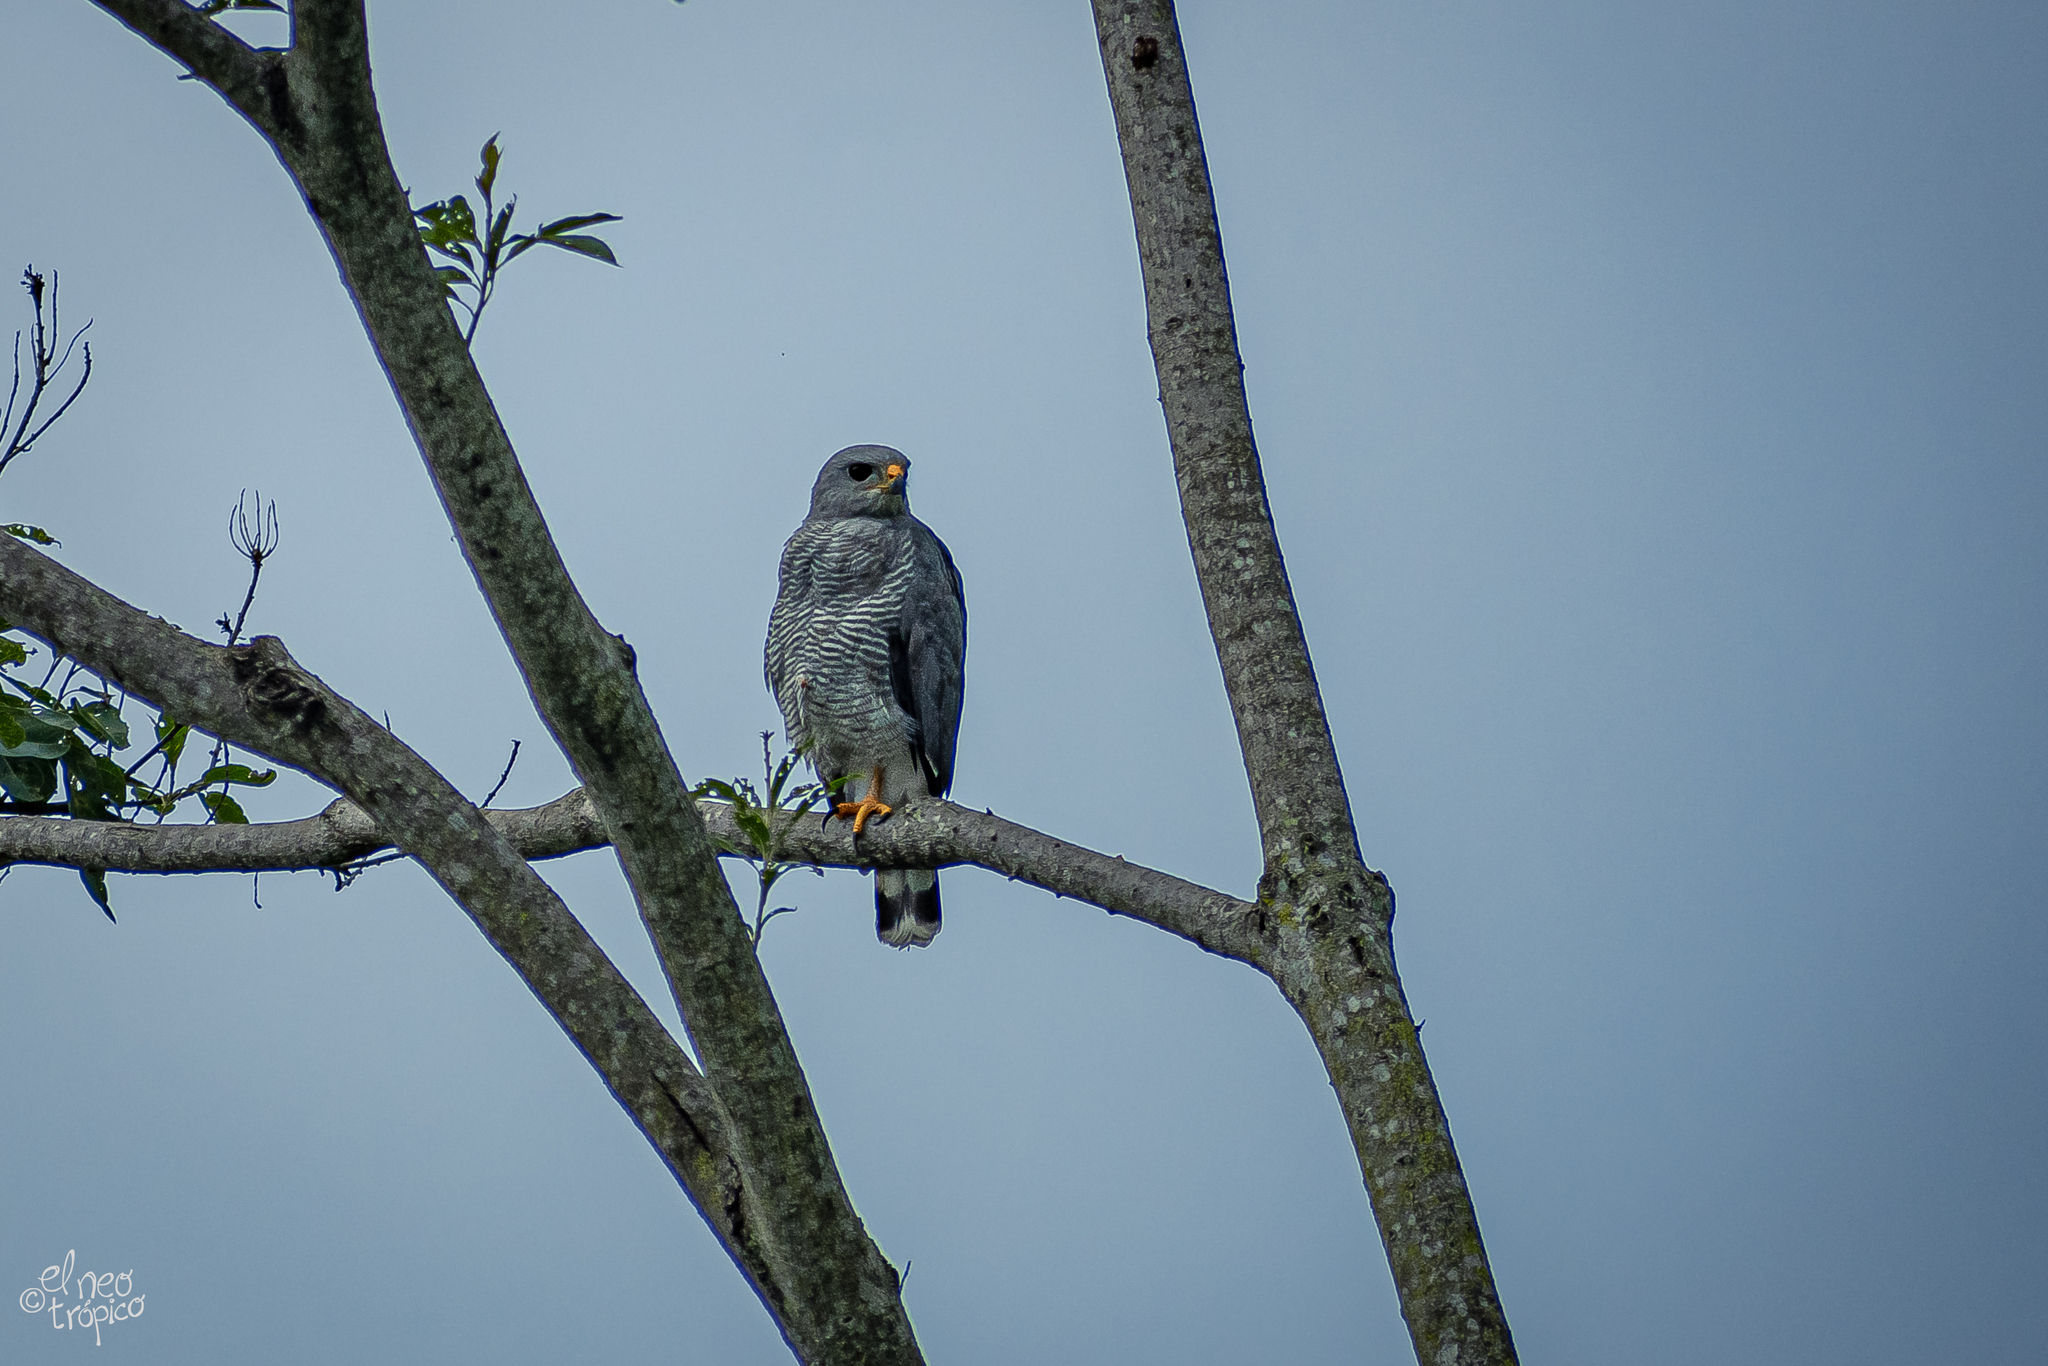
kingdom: Animalia
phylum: Chordata
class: Aves
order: Accipitriformes
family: Accipitridae
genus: Buteo
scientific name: Buteo nitidus
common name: Grey-lined hawk
